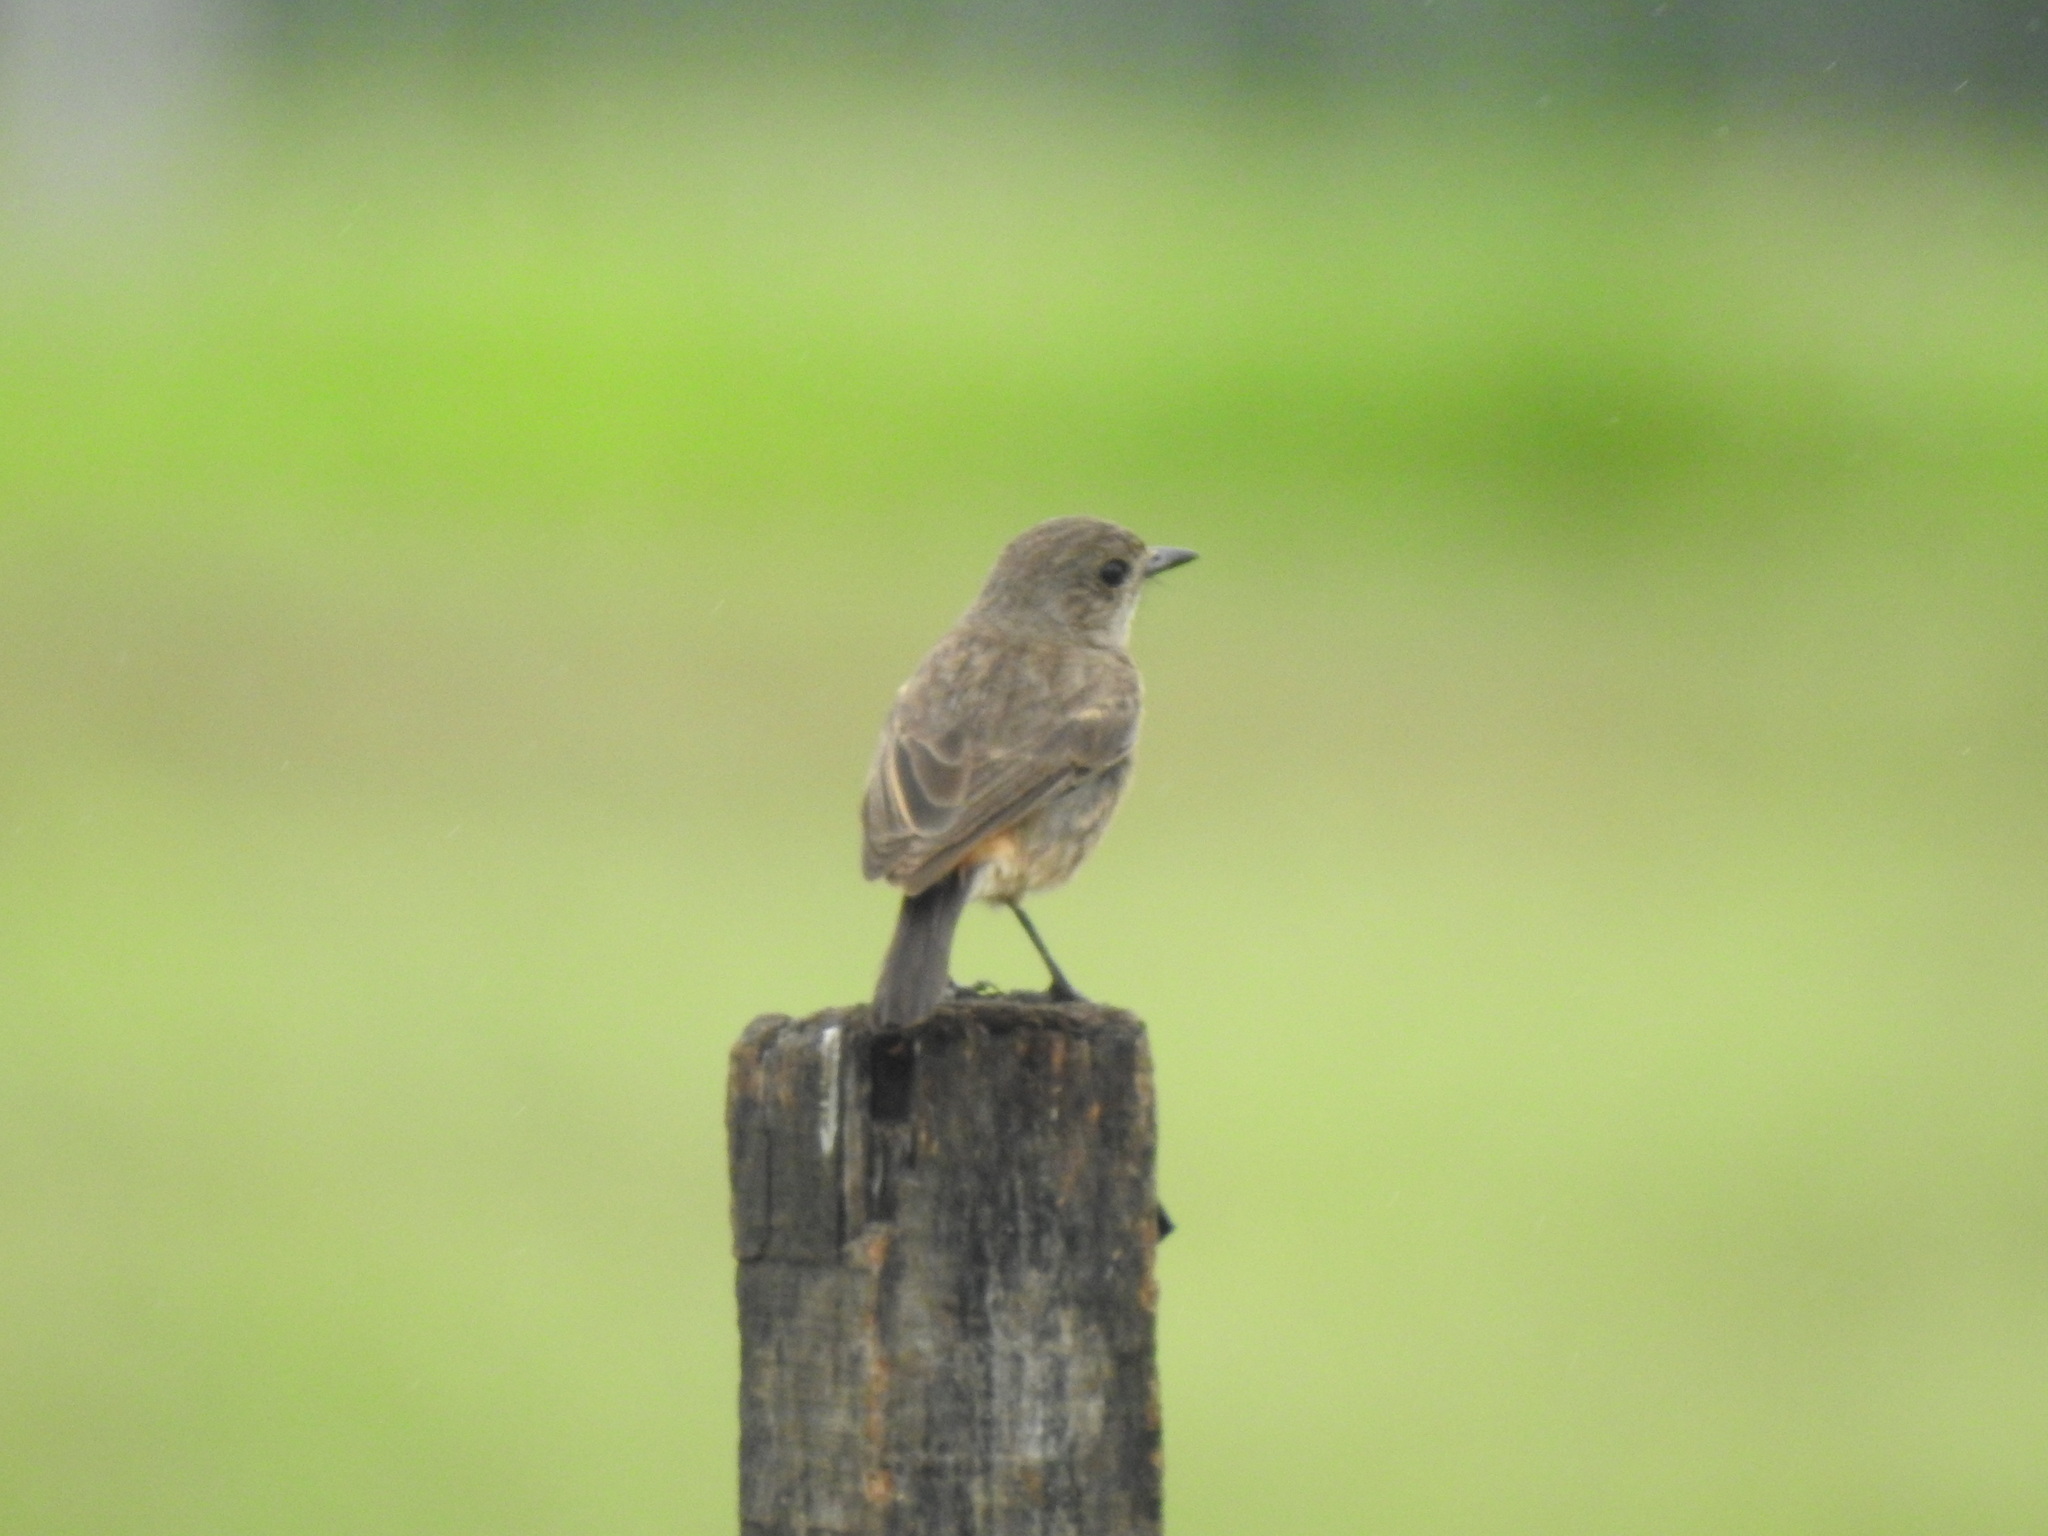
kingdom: Animalia
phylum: Chordata
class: Aves
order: Passeriformes
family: Muscicapidae
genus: Saxicola
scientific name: Saxicola caprata
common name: Pied bush chat
